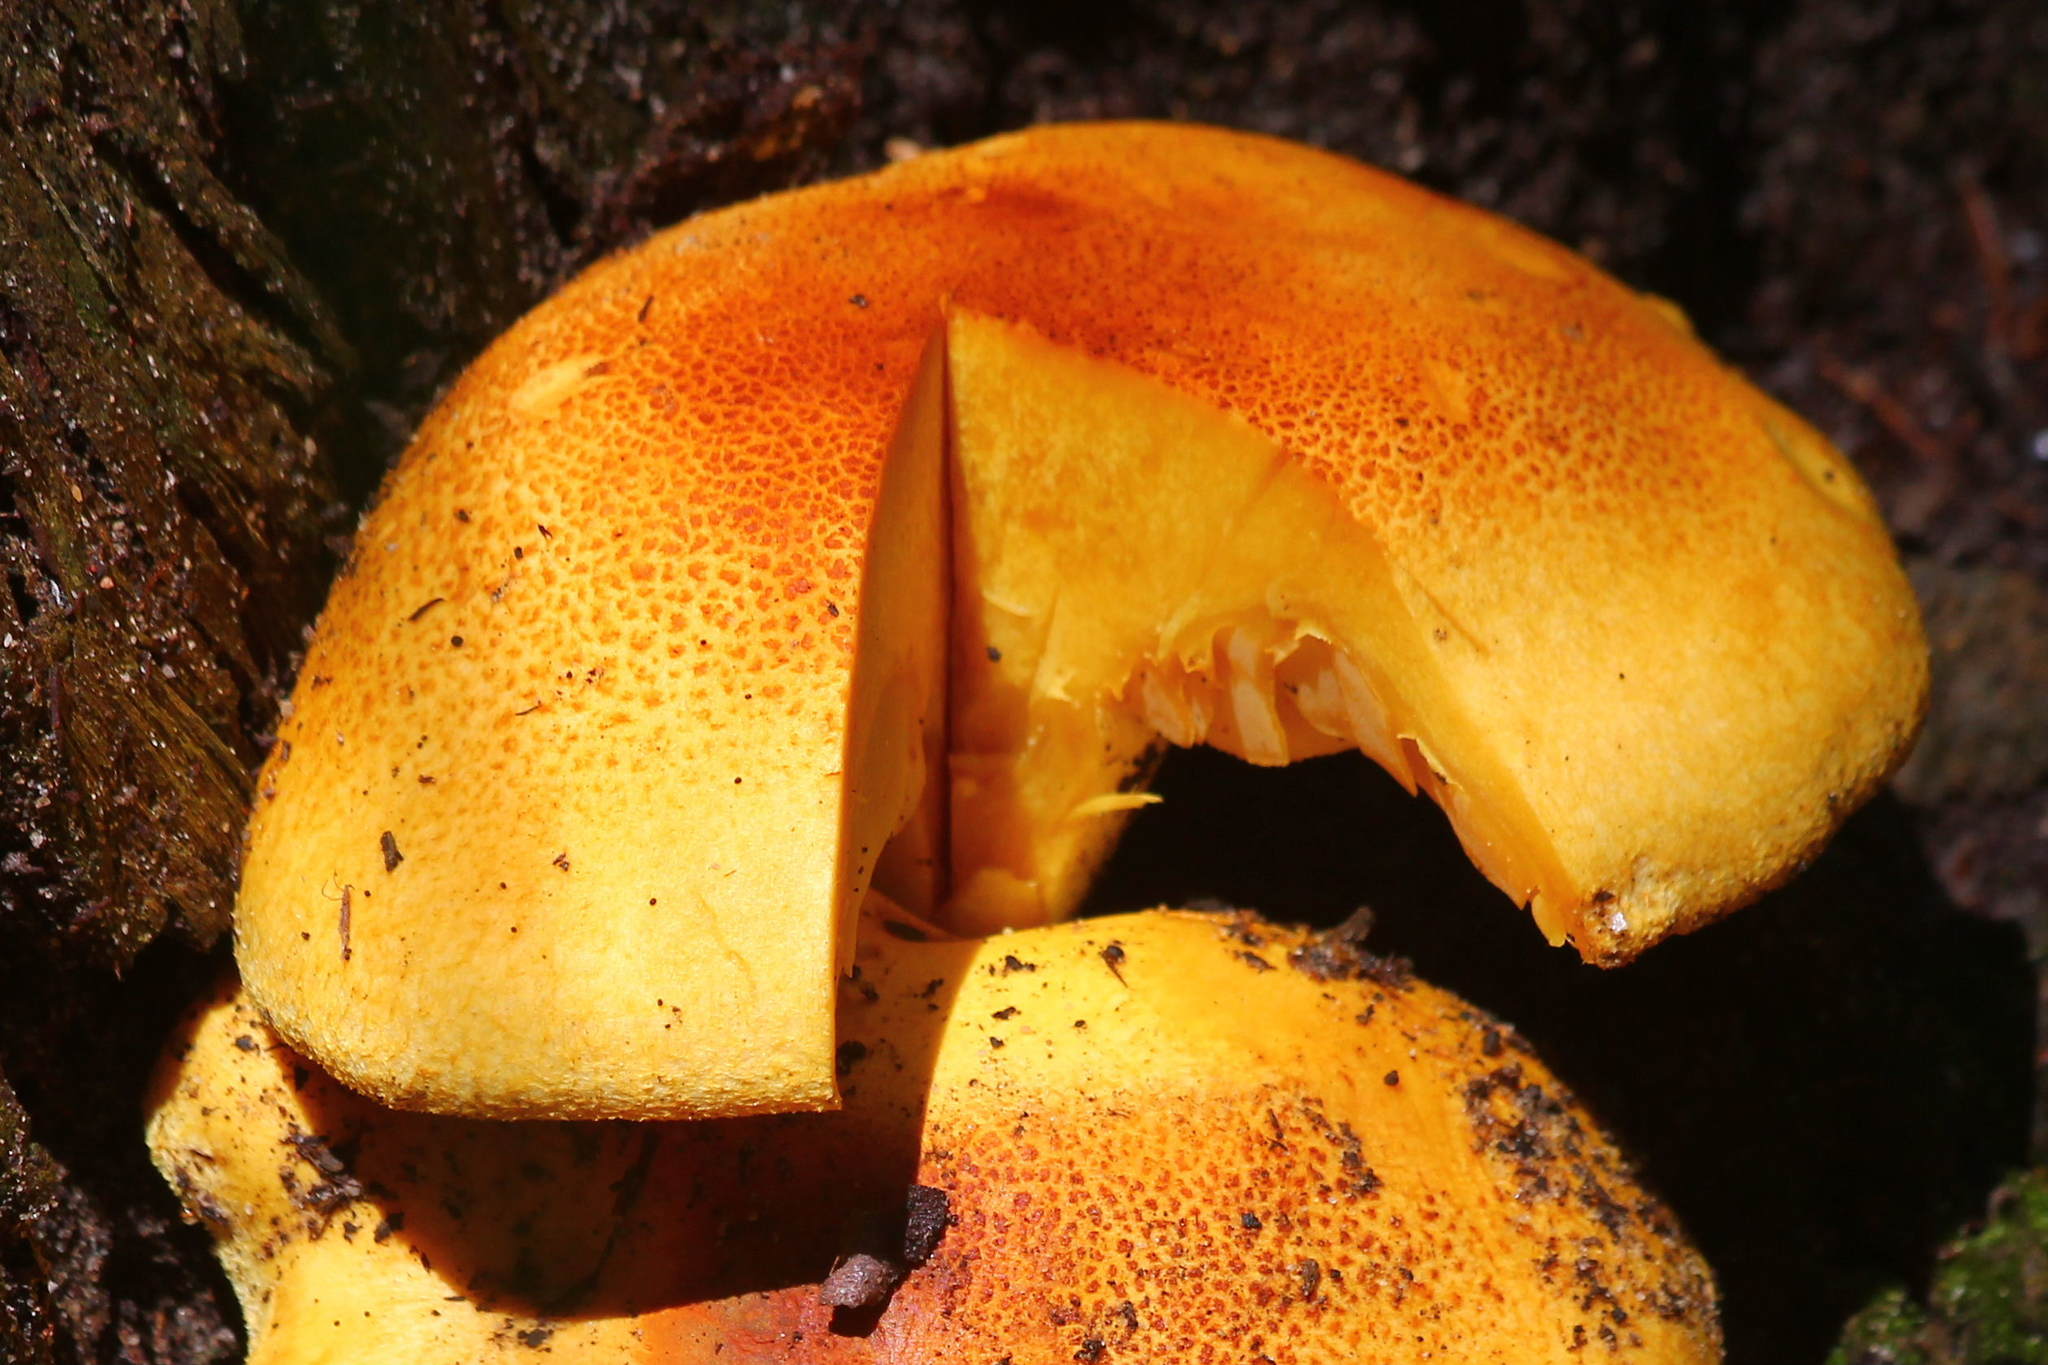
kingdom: Fungi
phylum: Basidiomycota
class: Agaricomycetes
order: Agaricales
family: Cortinariaceae
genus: Phlegmacium
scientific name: Phlegmacium areolatoimbricatum
